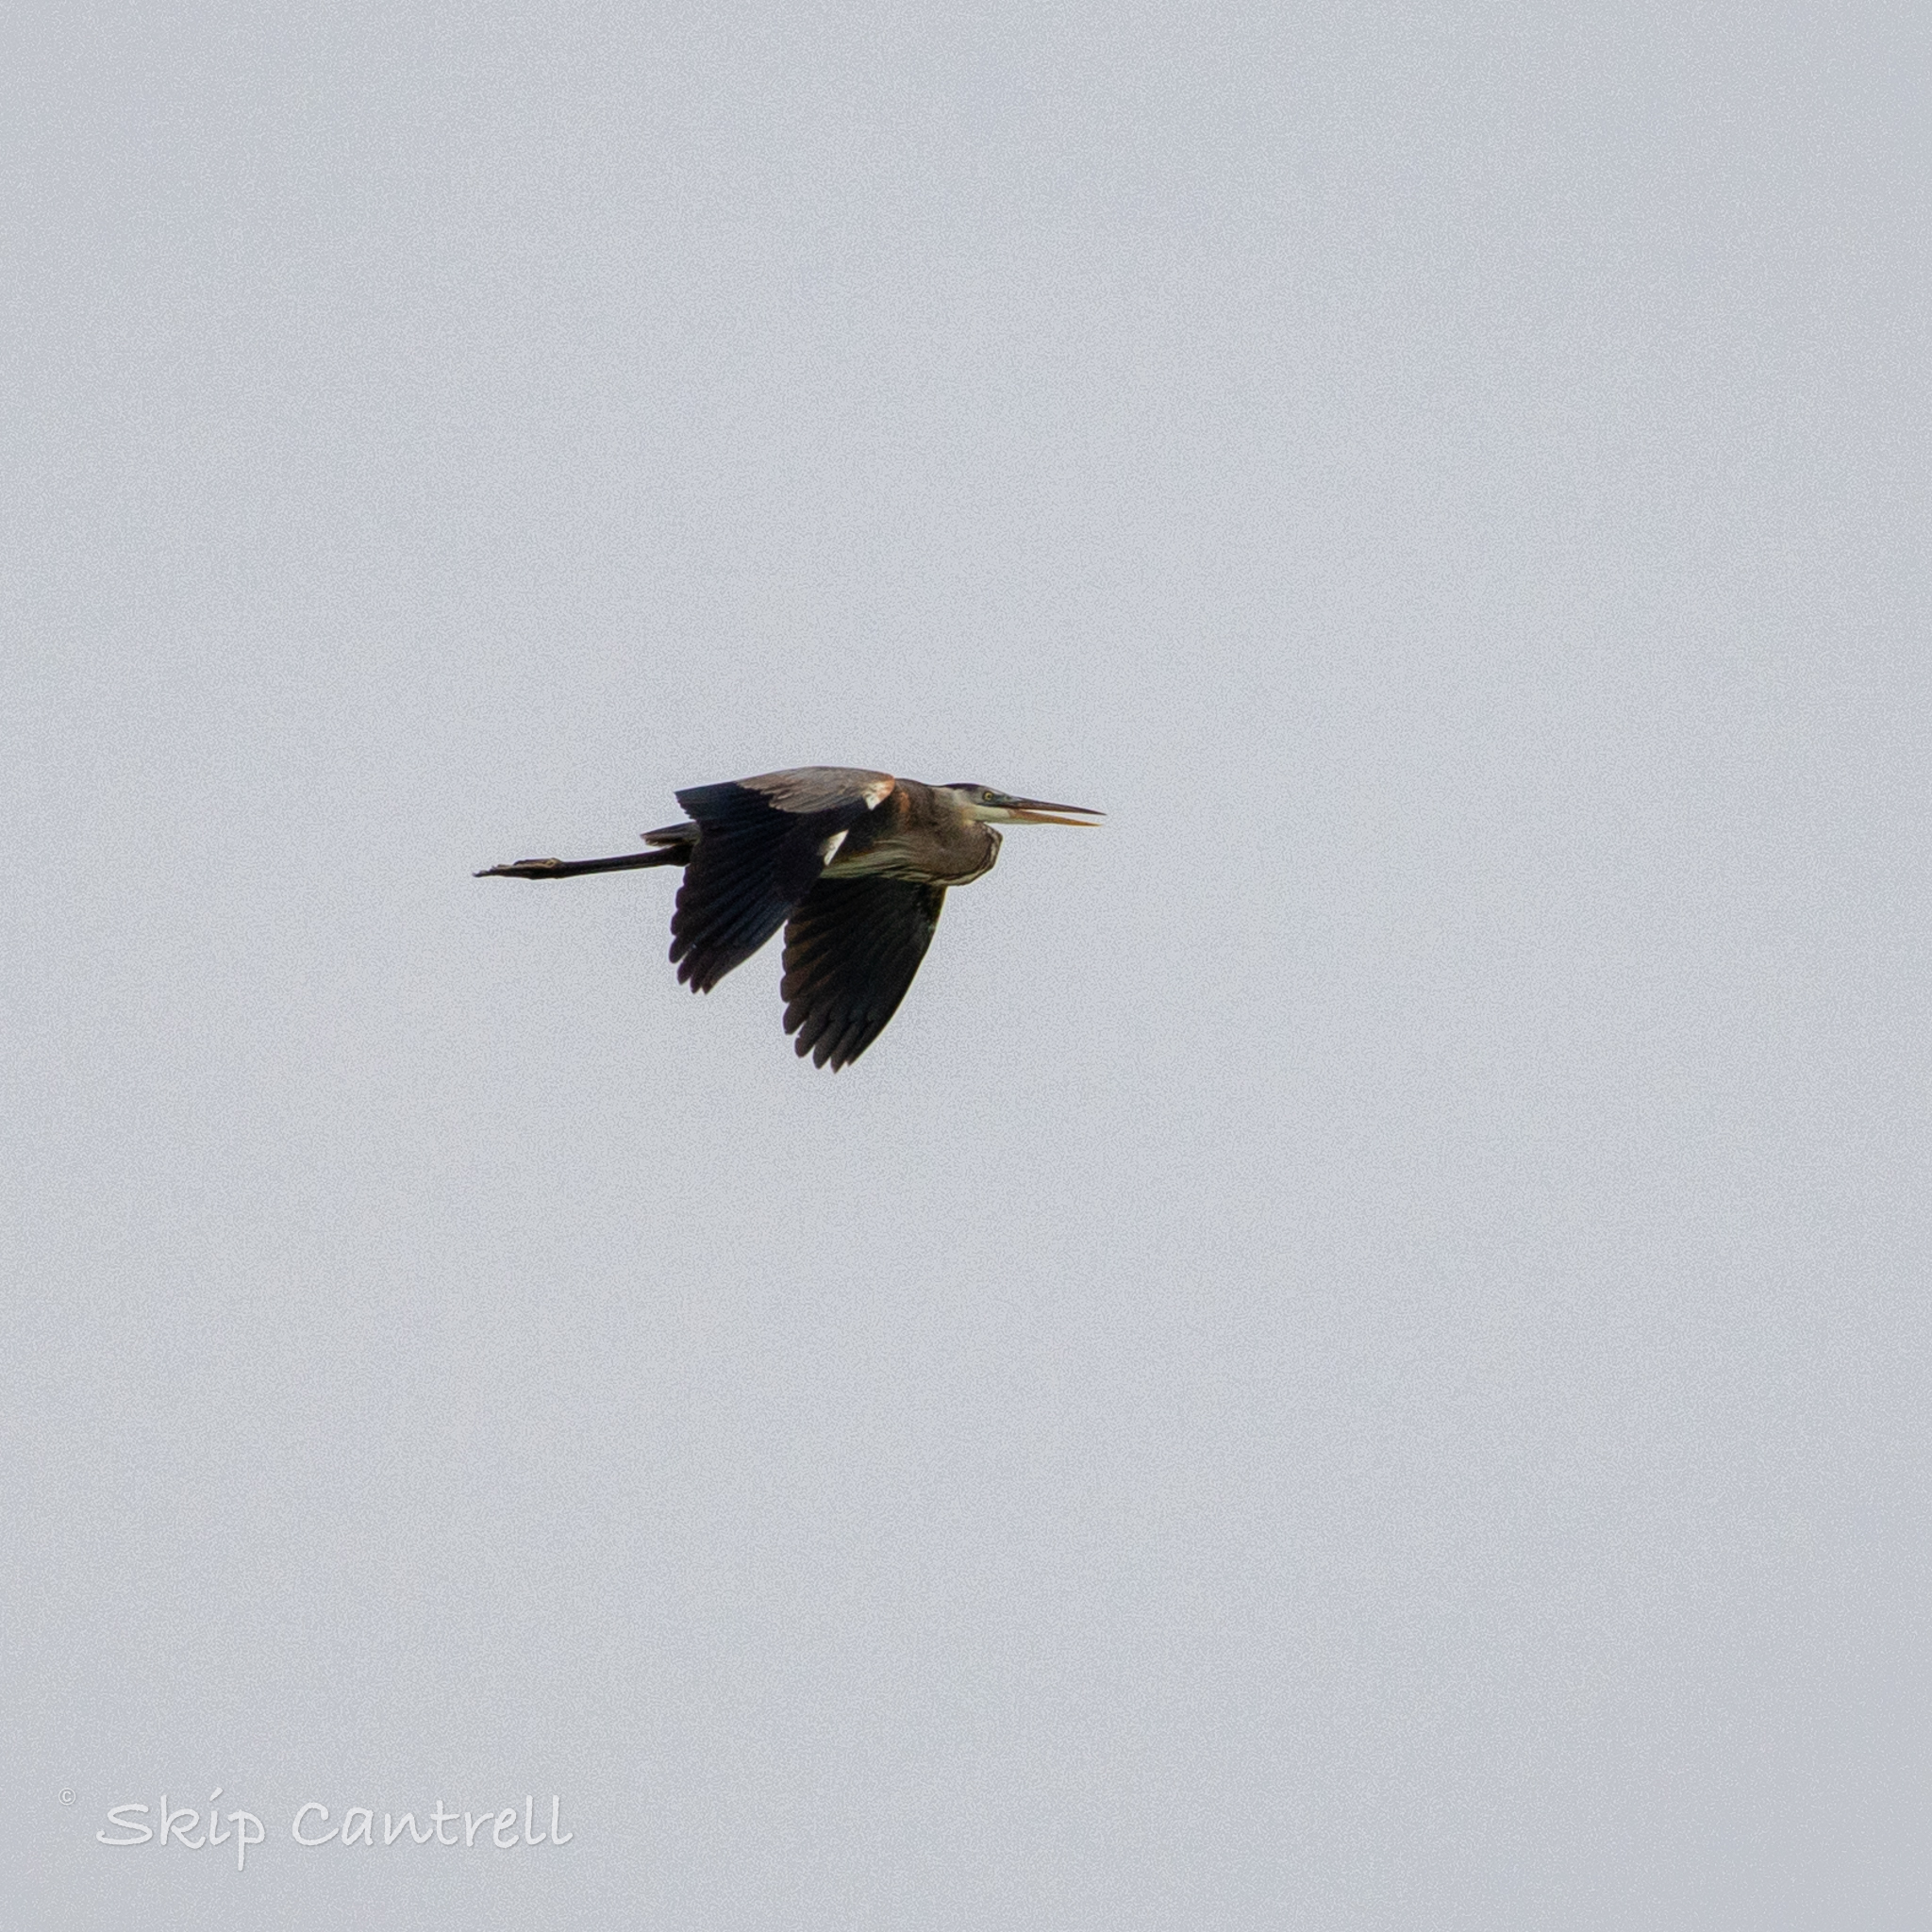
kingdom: Animalia
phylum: Chordata
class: Aves
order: Pelecaniformes
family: Ardeidae
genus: Ardea
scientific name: Ardea herodias
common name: Great blue heron
